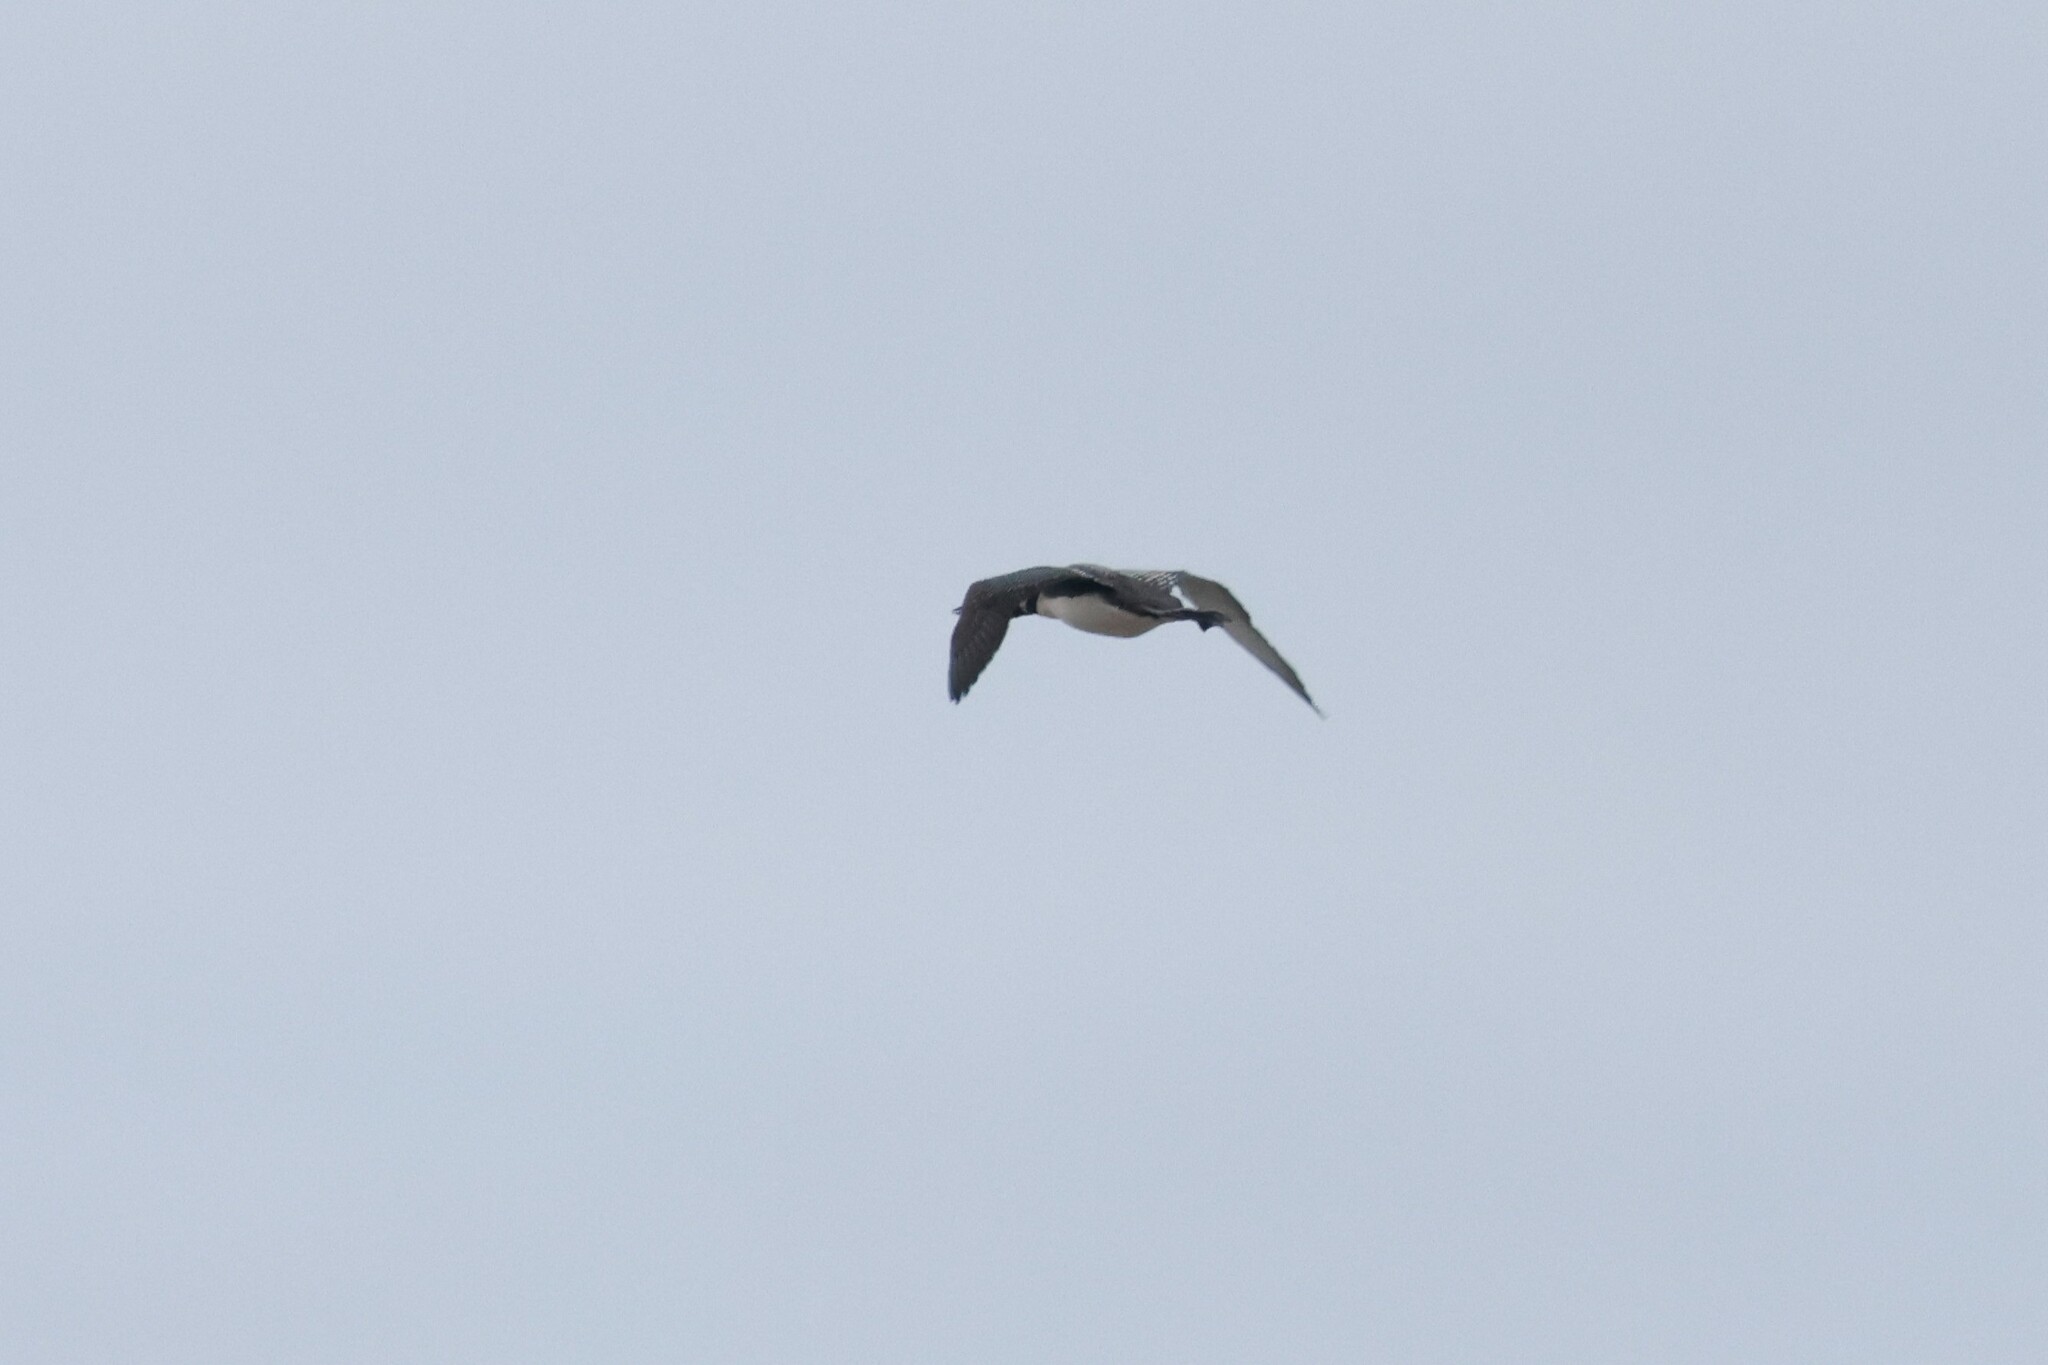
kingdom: Animalia
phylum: Chordata
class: Aves
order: Gaviiformes
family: Gaviidae
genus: Gavia
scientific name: Gavia immer
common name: Common loon
